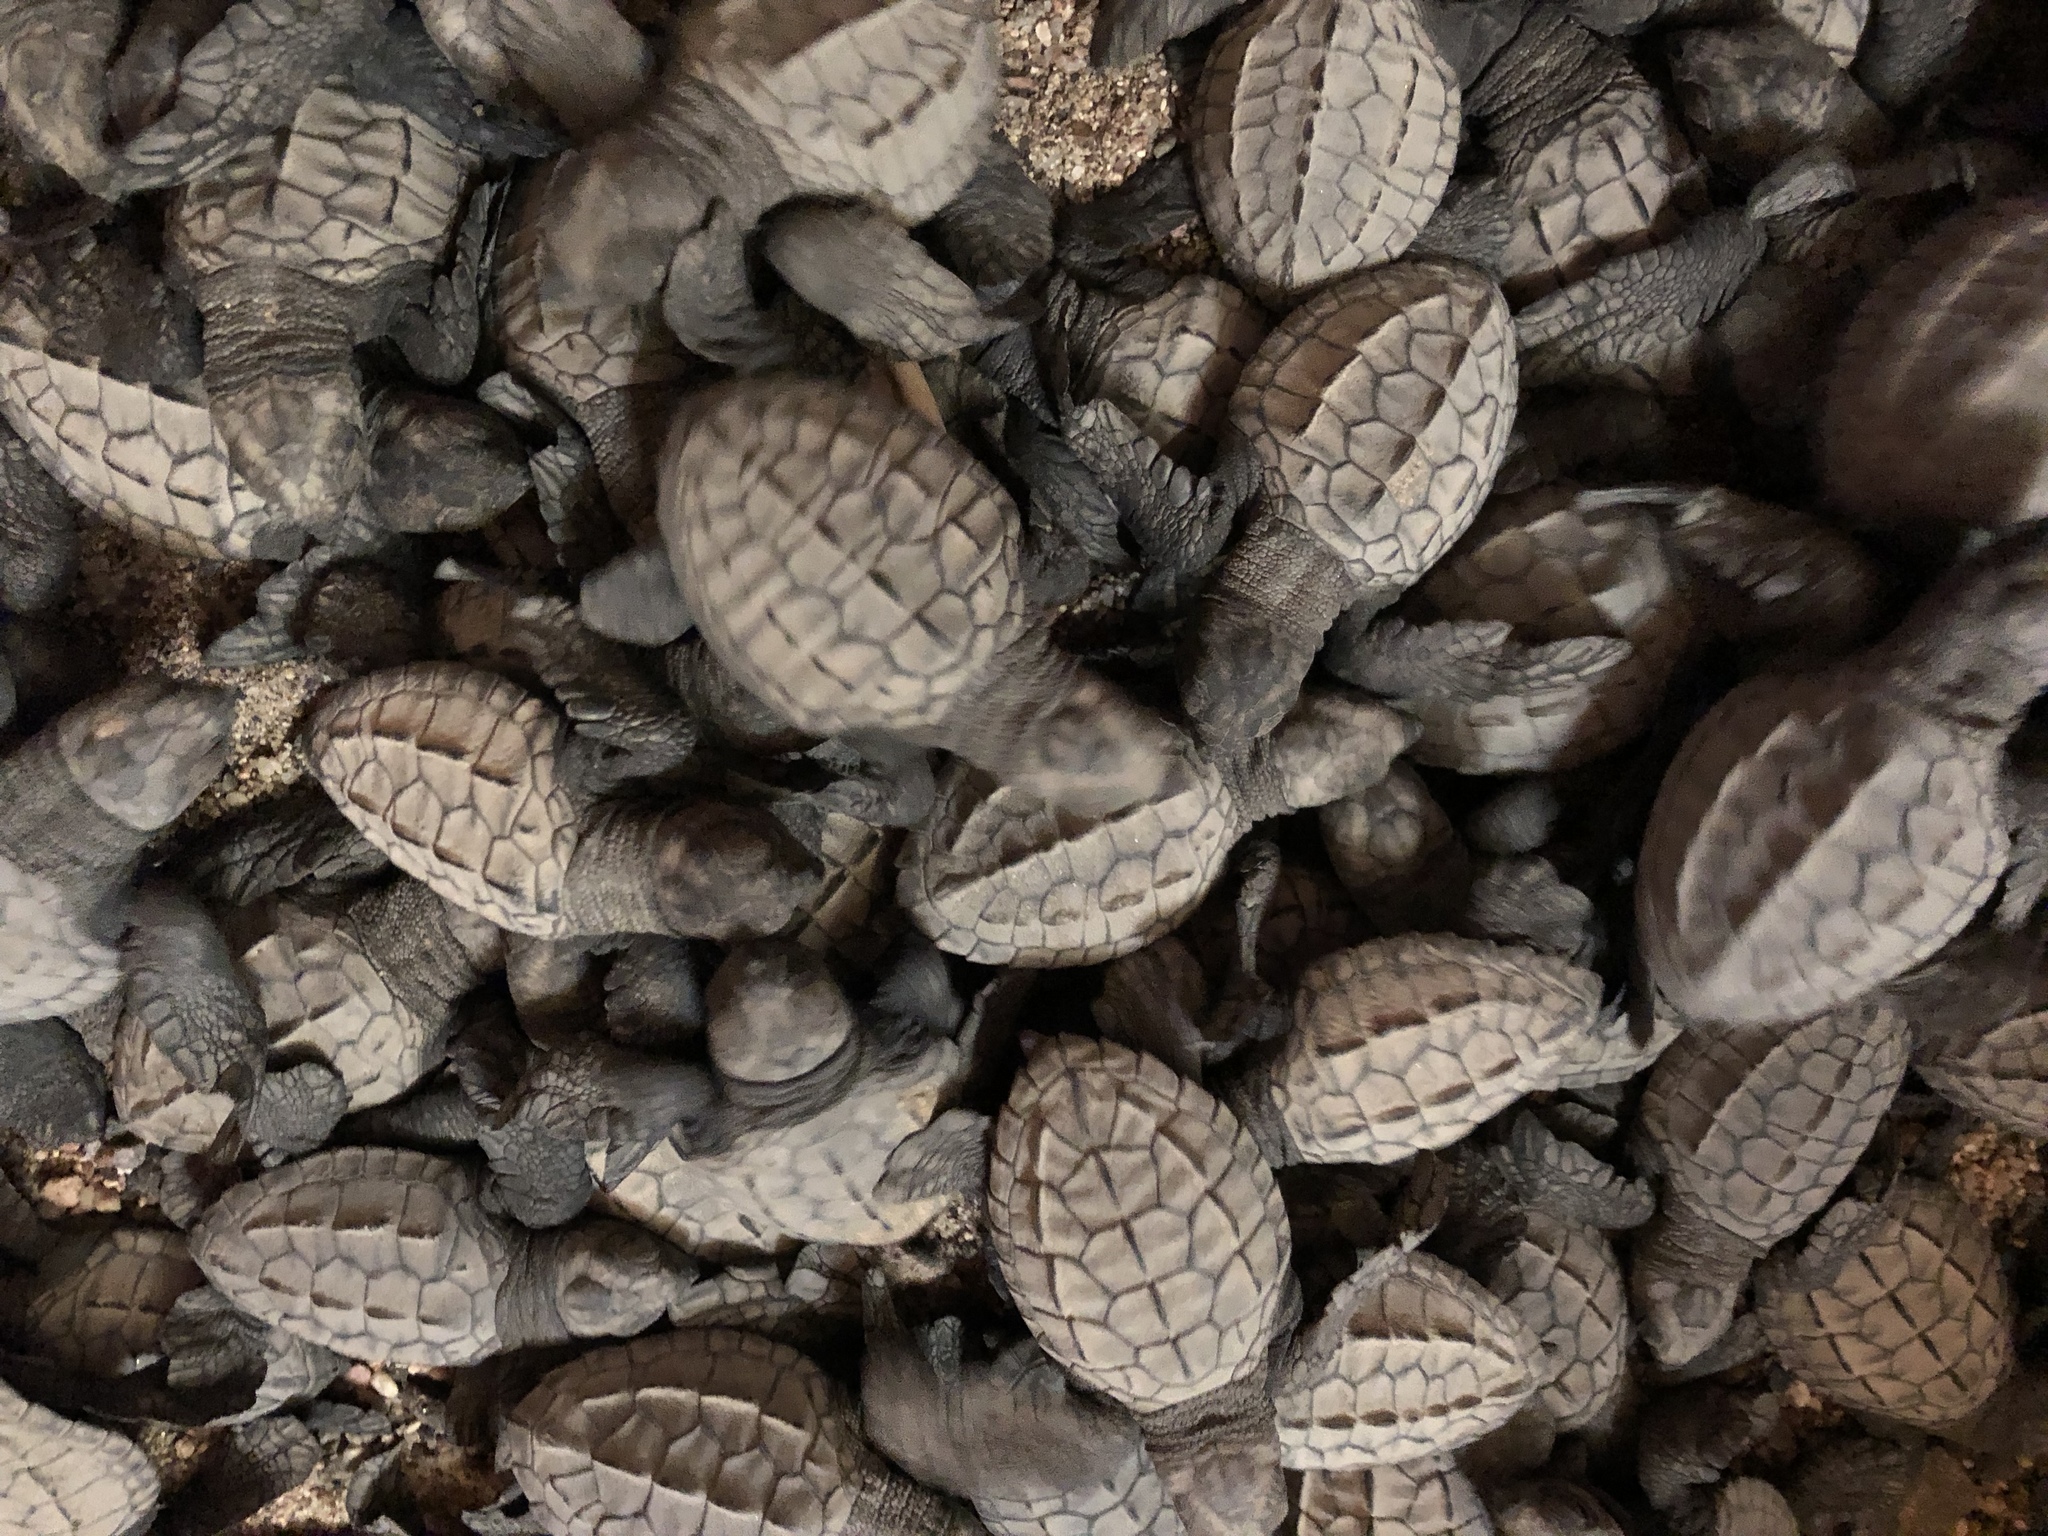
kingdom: Animalia
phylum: Chordata
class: Testudines
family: Cheloniidae
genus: Lepidochelys
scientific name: Lepidochelys olivacea
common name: Olive ridley
